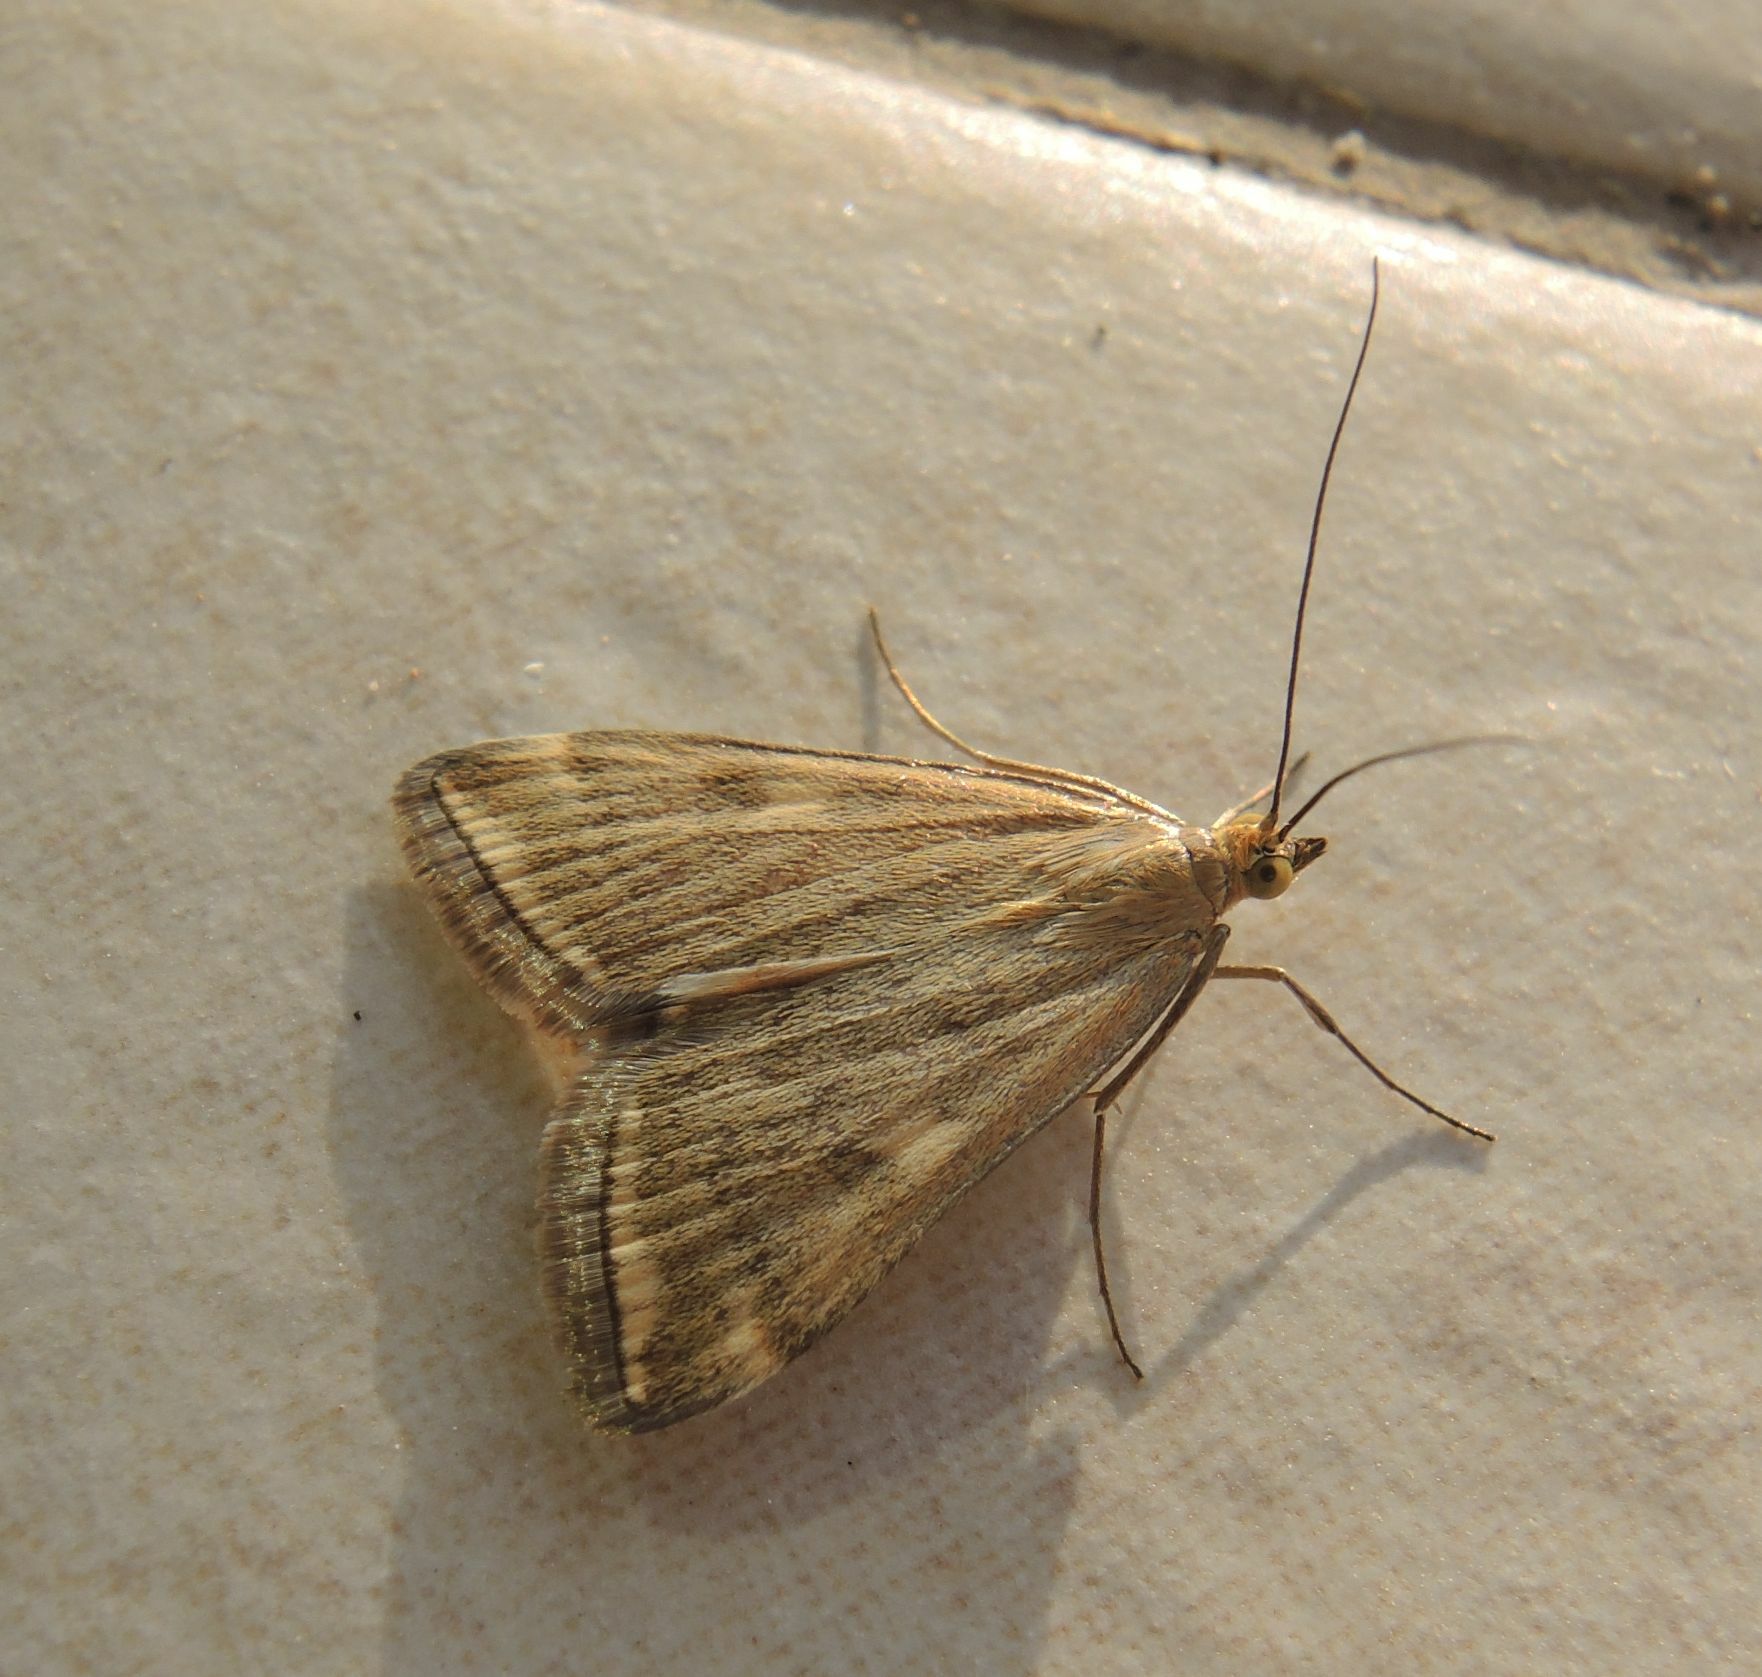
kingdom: Animalia
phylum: Arthropoda
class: Insecta
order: Lepidoptera
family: Crambidae
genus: Loxostege
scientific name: Loxostege sticticalis
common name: Crambid moth
